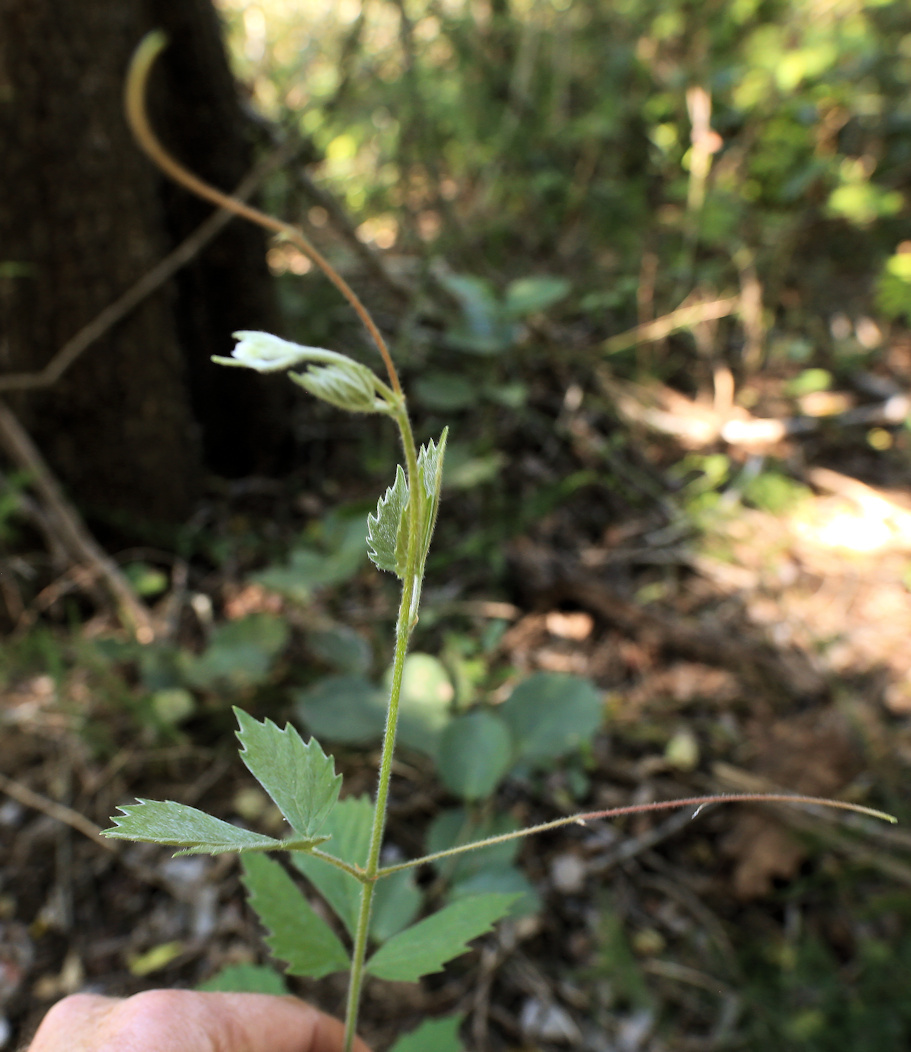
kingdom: Plantae
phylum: Tracheophyta
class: Magnoliopsida
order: Vitales
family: Vitaceae
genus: Rhoicissus
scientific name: Rhoicissus tridentata
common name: Common forest grape
